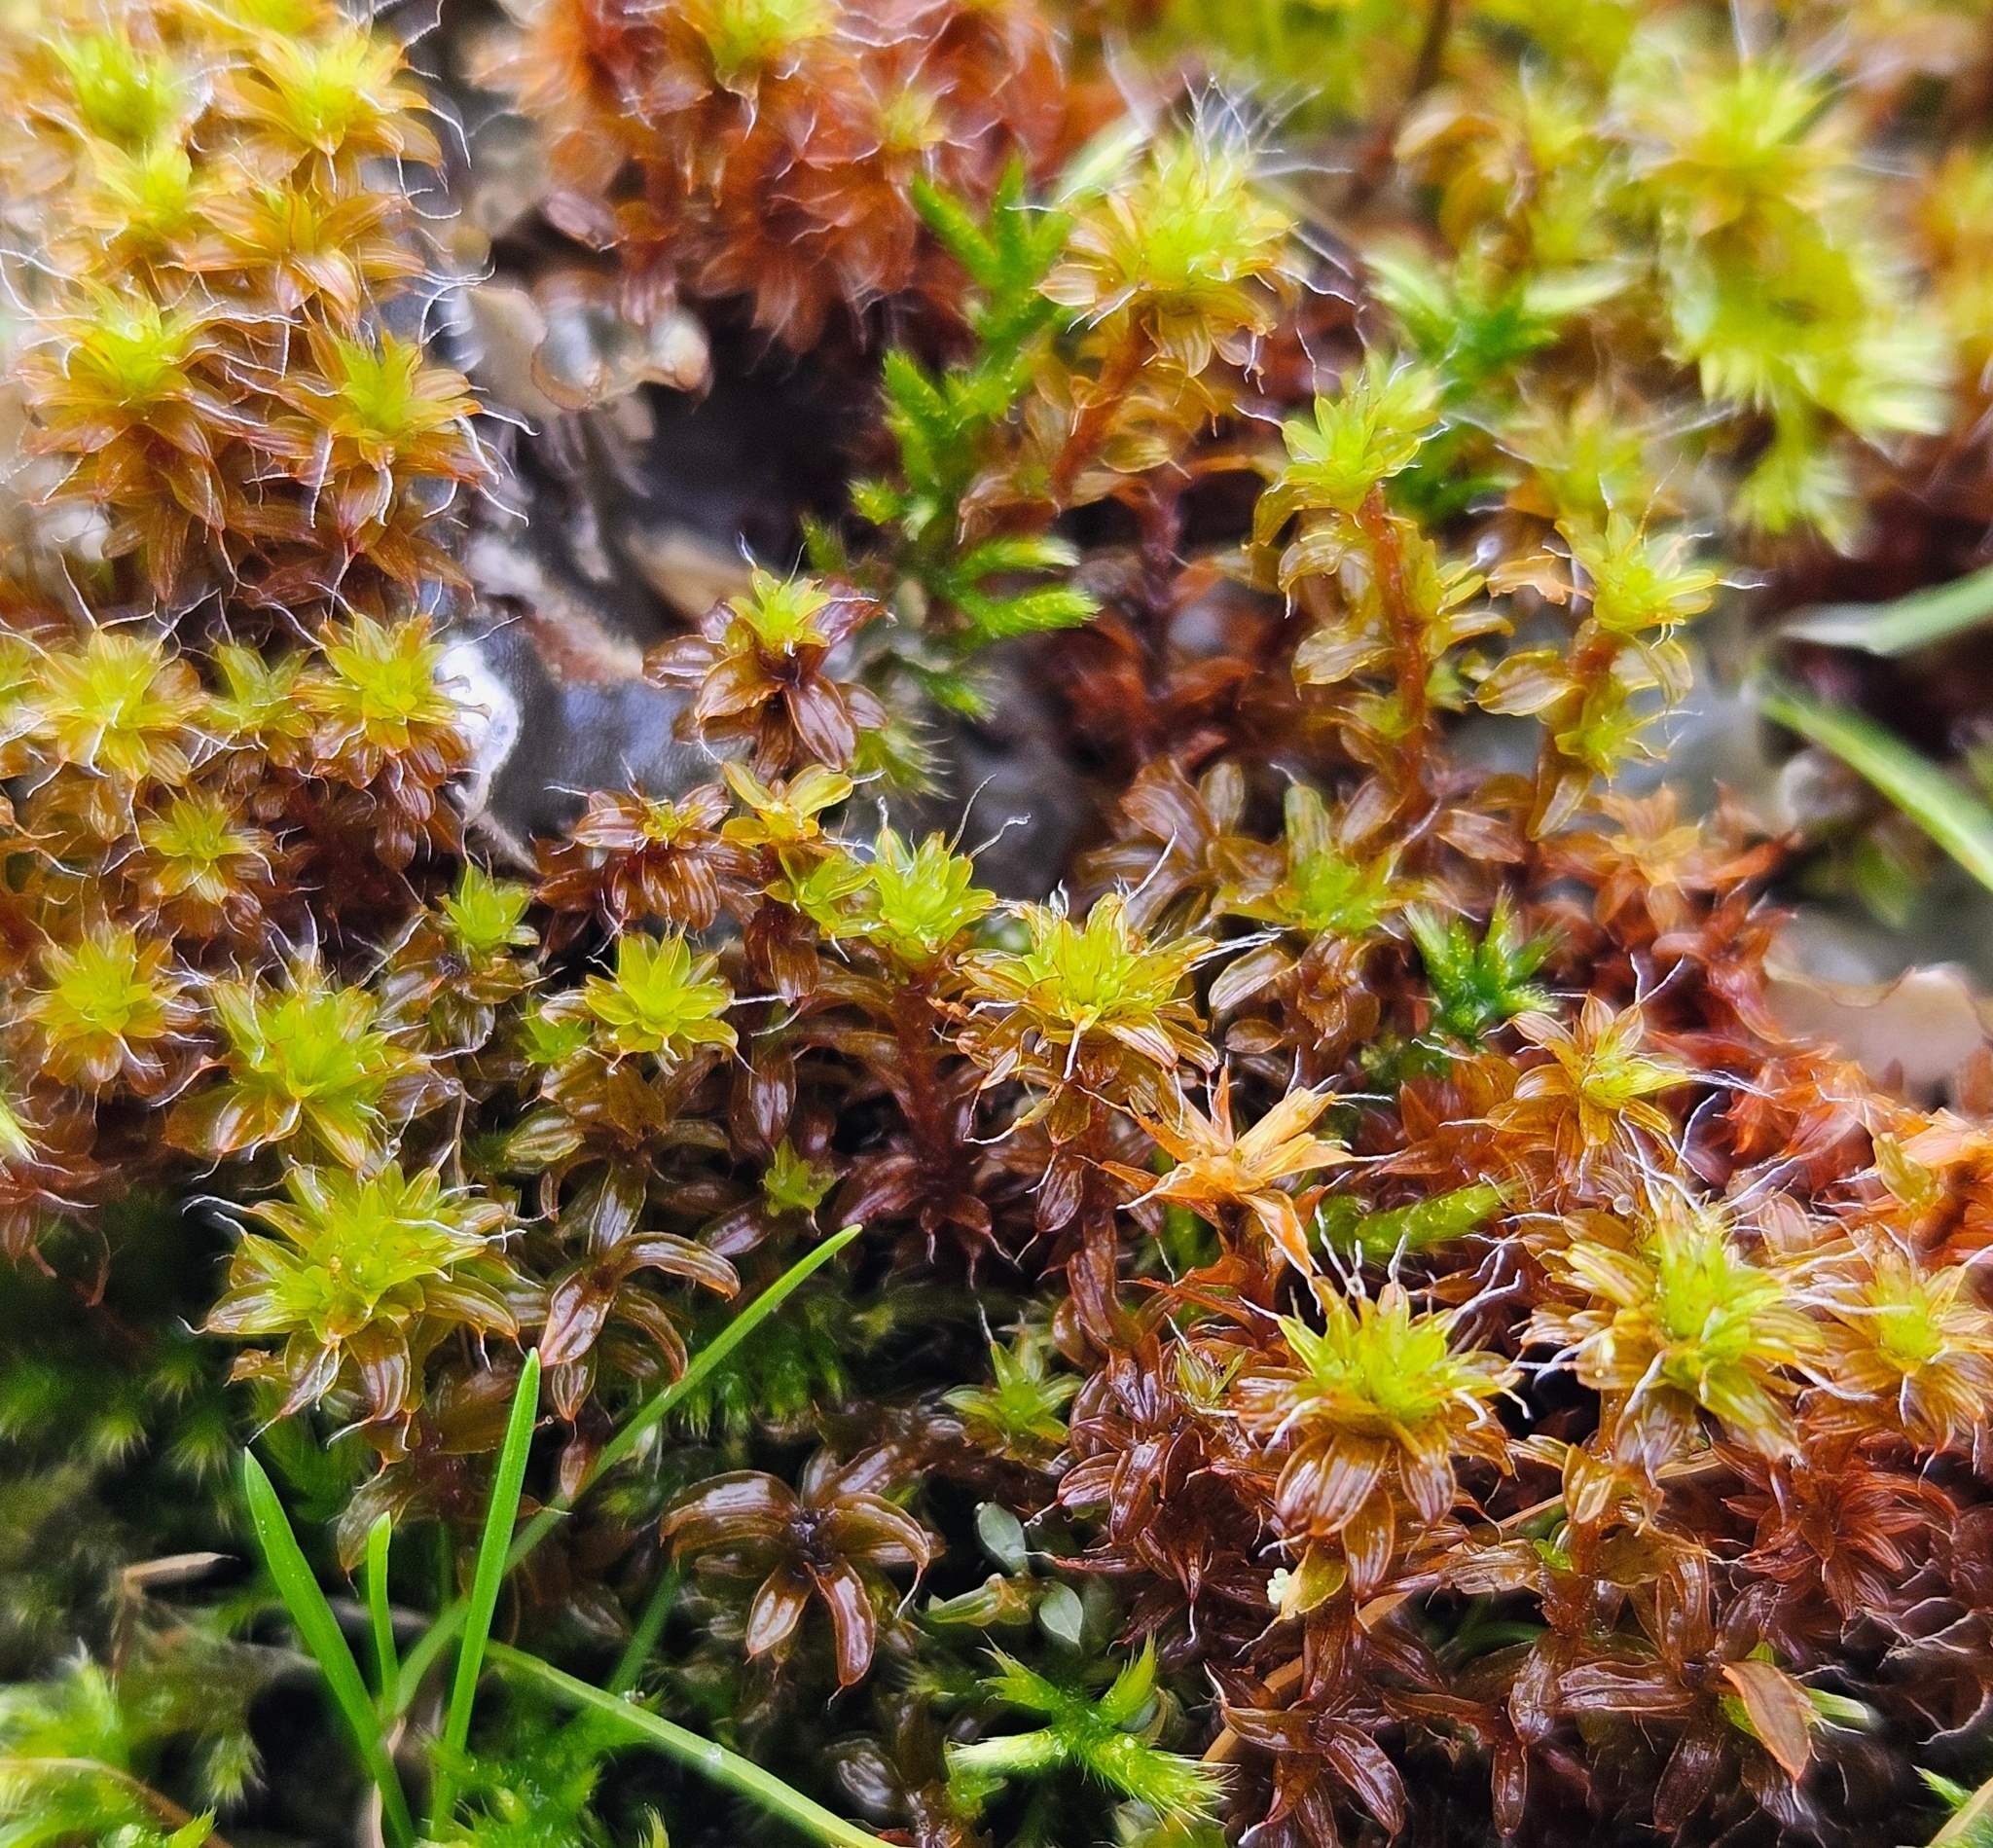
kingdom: Plantae
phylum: Bryophyta
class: Bryopsida
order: Pottiales
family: Pottiaceae
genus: Syntrichia
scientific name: Syntrichia ruralis
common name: Sidewalk screw moss
